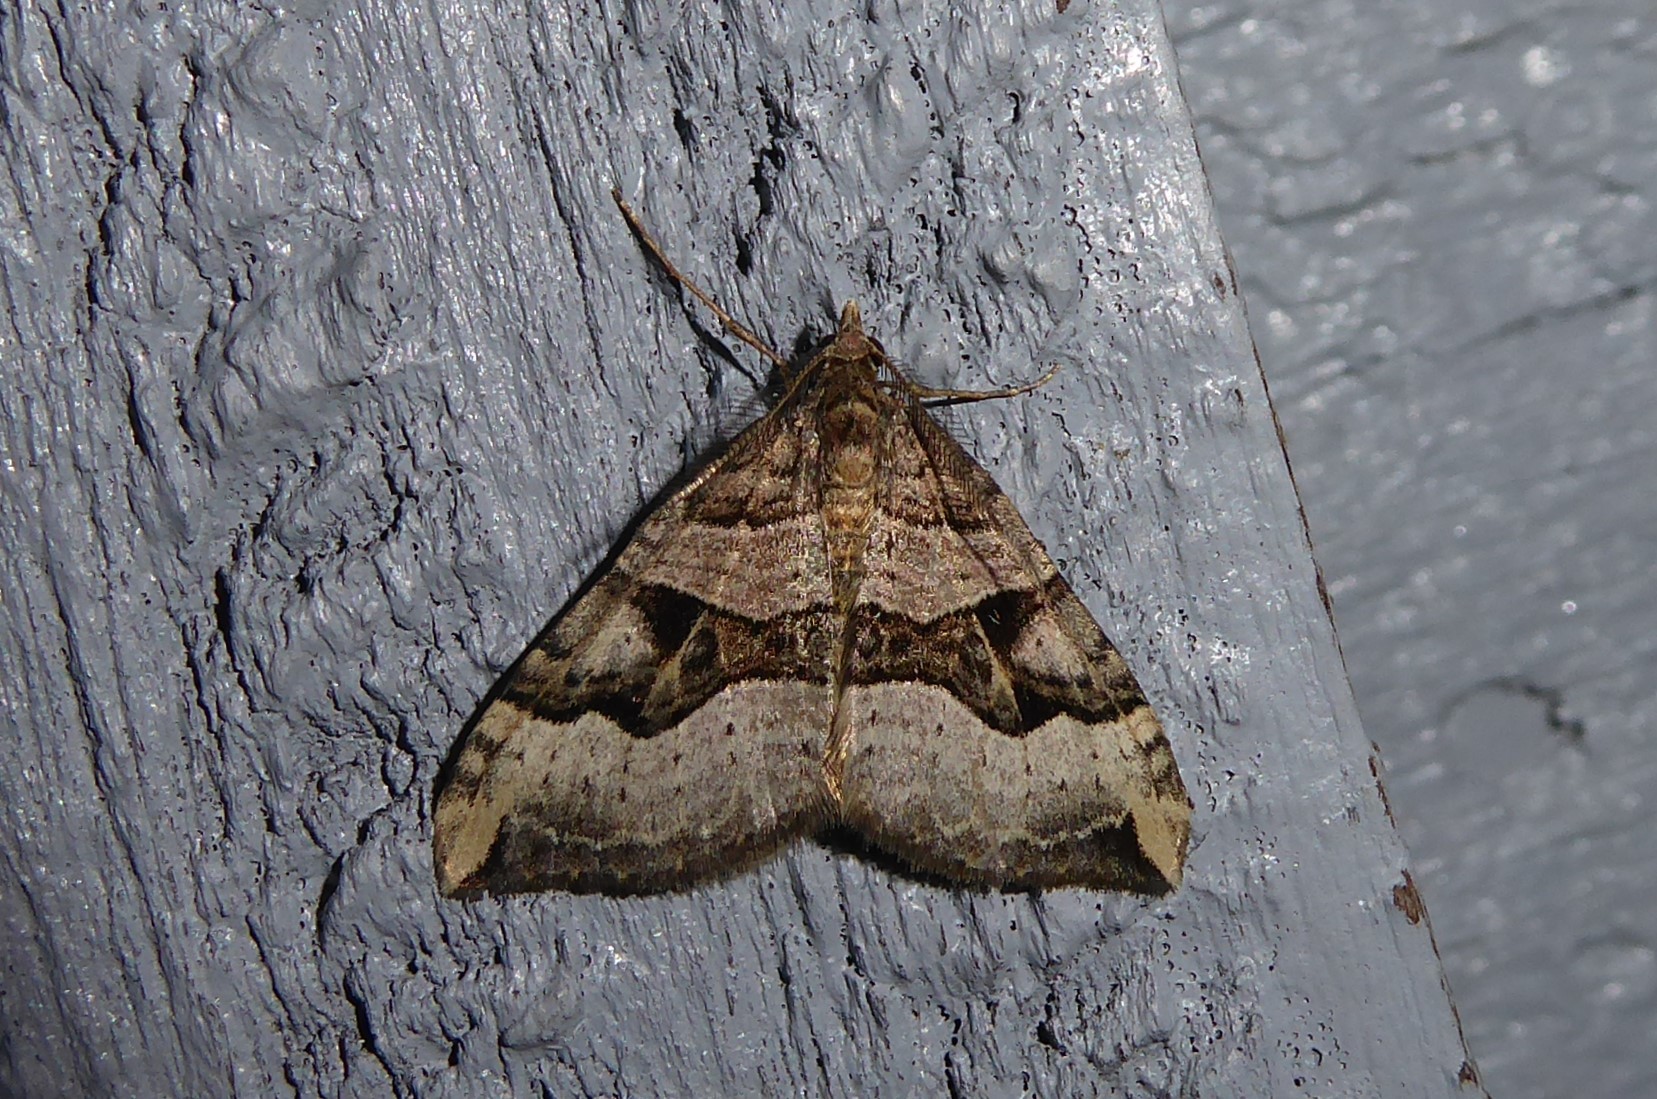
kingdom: Animalia
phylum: Arthropoda
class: Insecta
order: Lepidoptera
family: Geometridae
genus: Xanthorhoe
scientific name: Xanthorhoe semifissata
